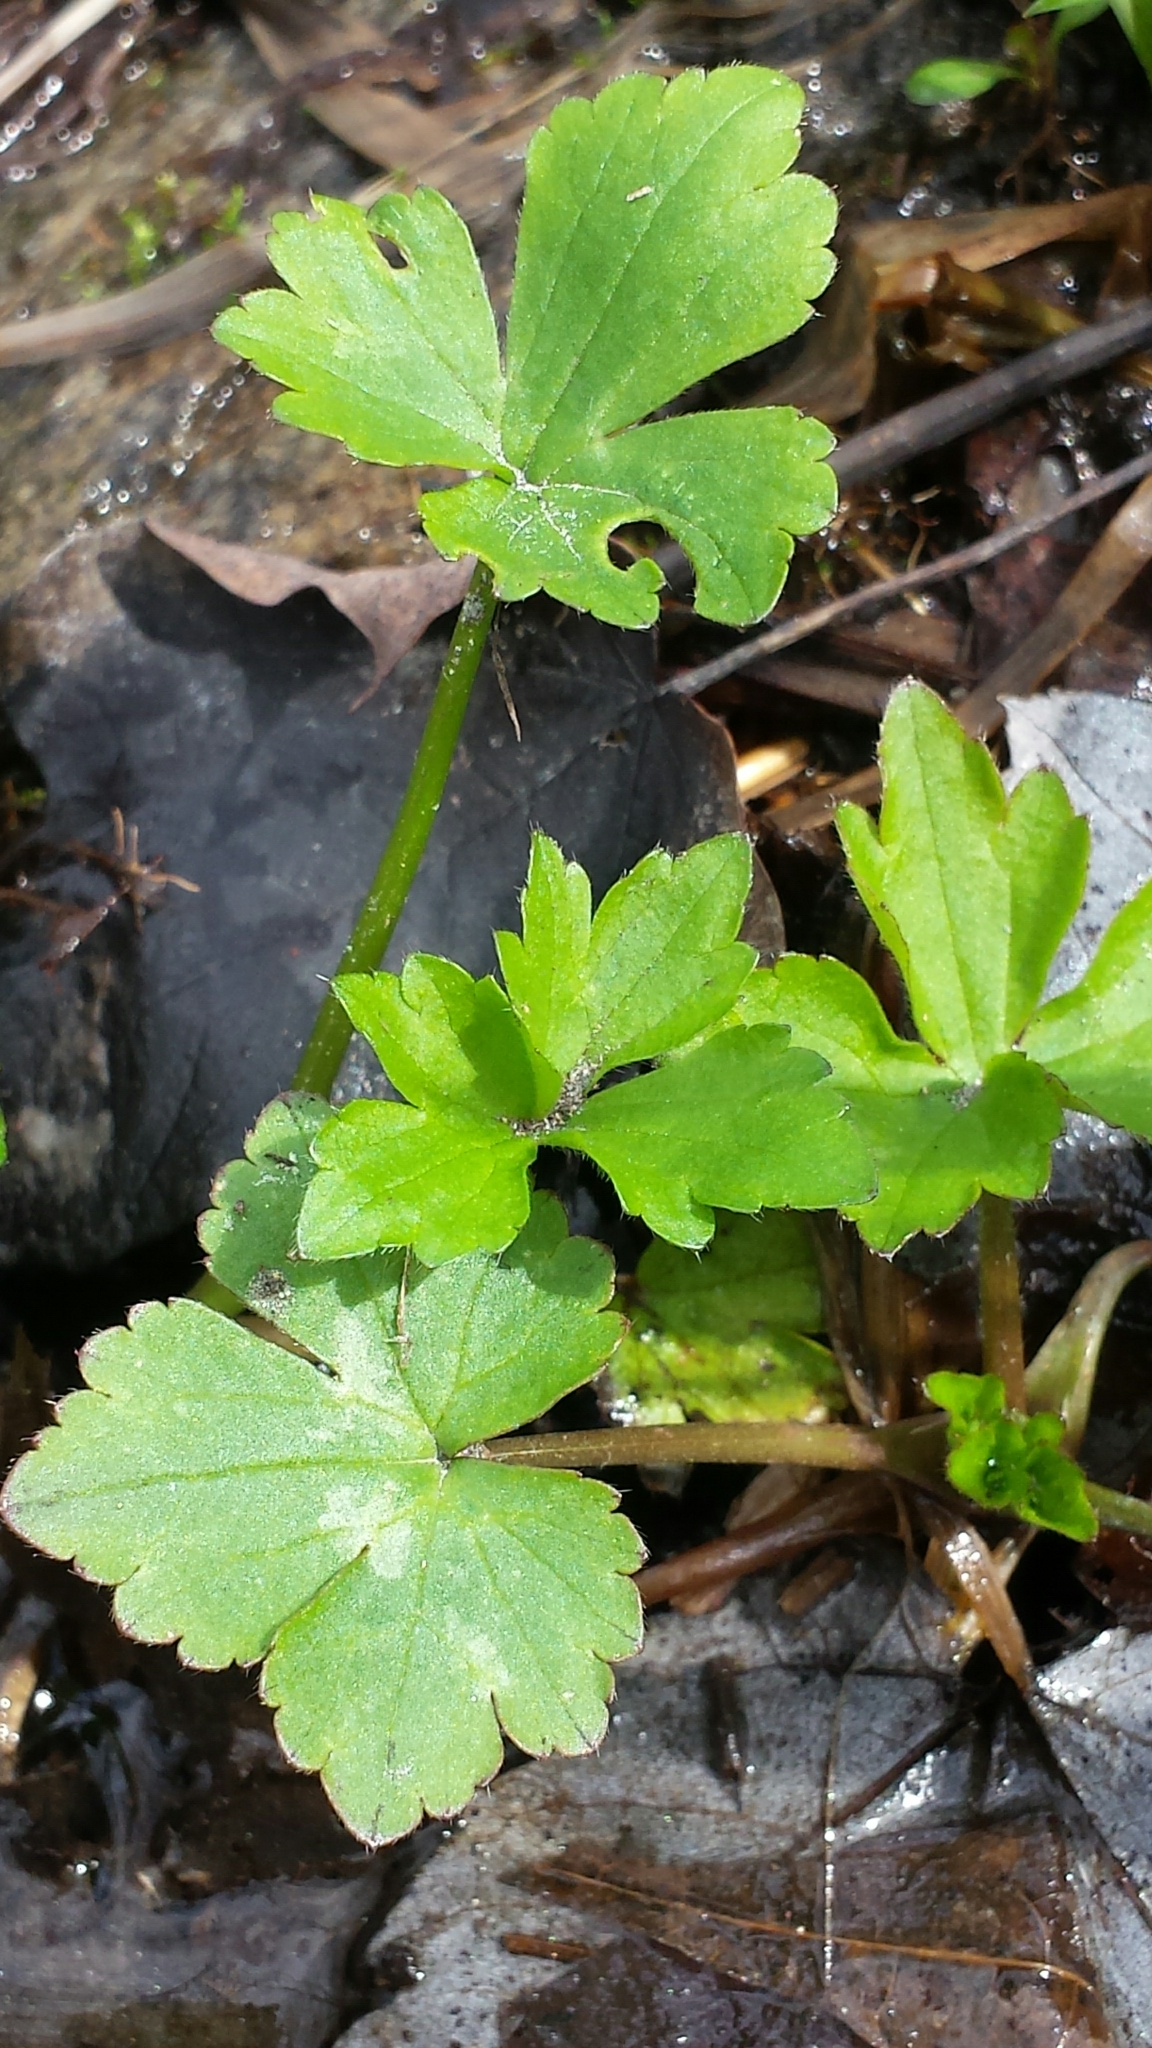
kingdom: Plantae
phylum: Tracheophyta
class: Magnoliopsida
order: Ranunculales
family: Ranunculaceae
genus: Ranunculus
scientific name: Ranunculus recurvatus
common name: Blisterwort
